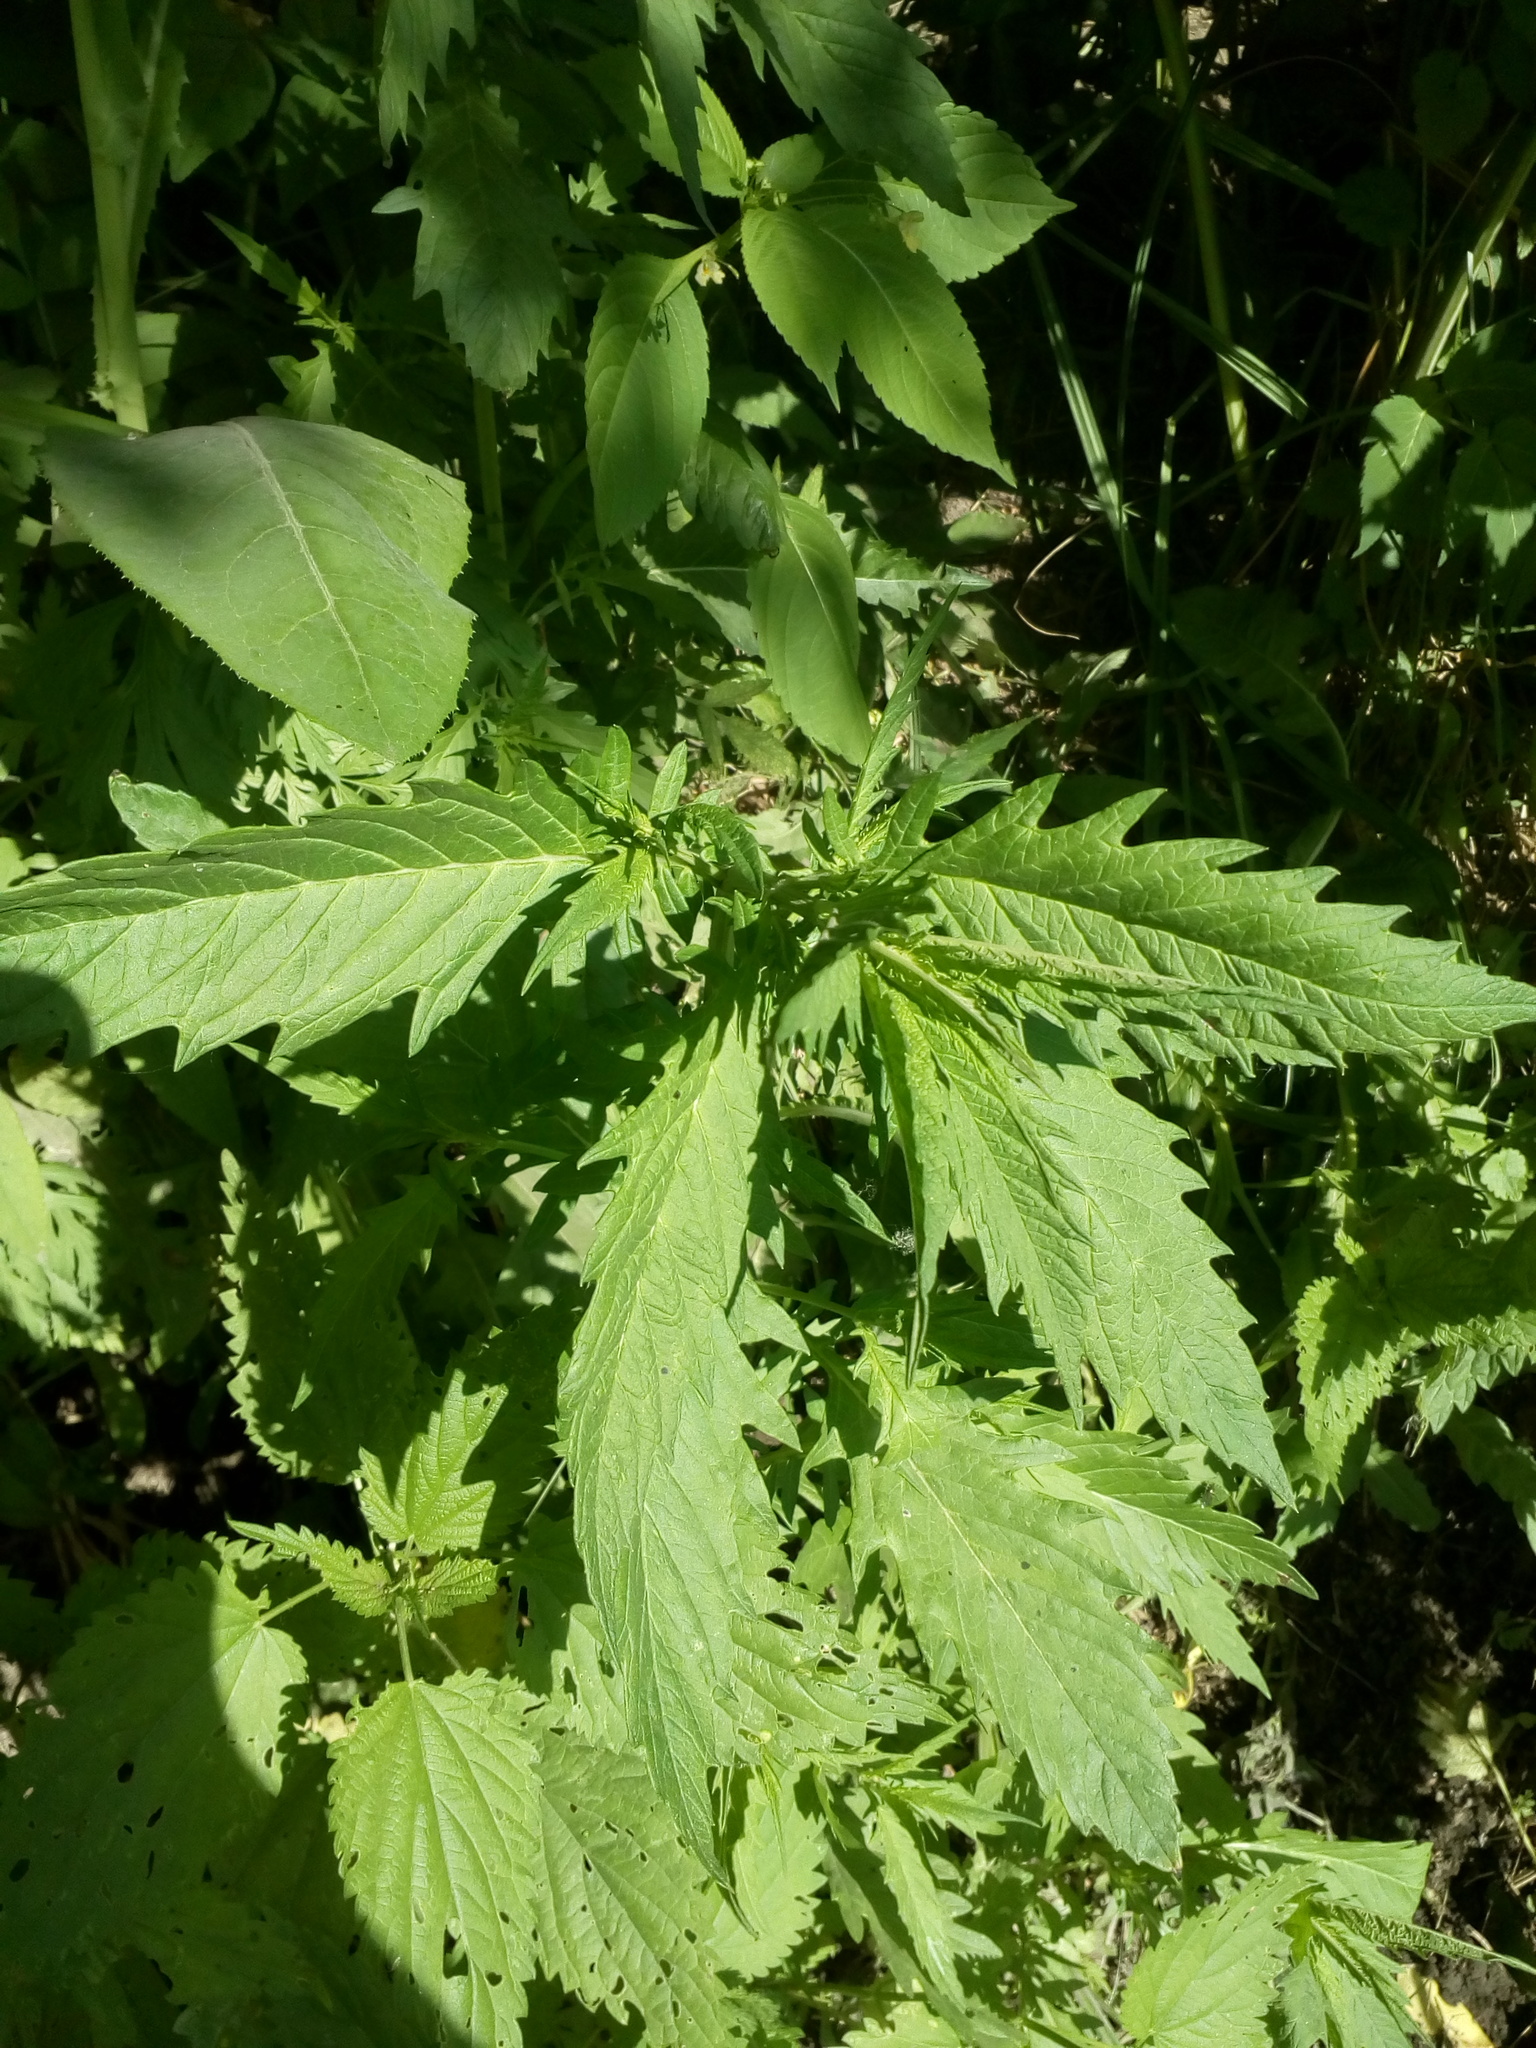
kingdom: Plantae
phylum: Tracheophyta
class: Magnoliopsida
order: Lamiales
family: Lamiaceae
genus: Lycopus
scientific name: Lycopus europaeus
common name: European bugleweed
